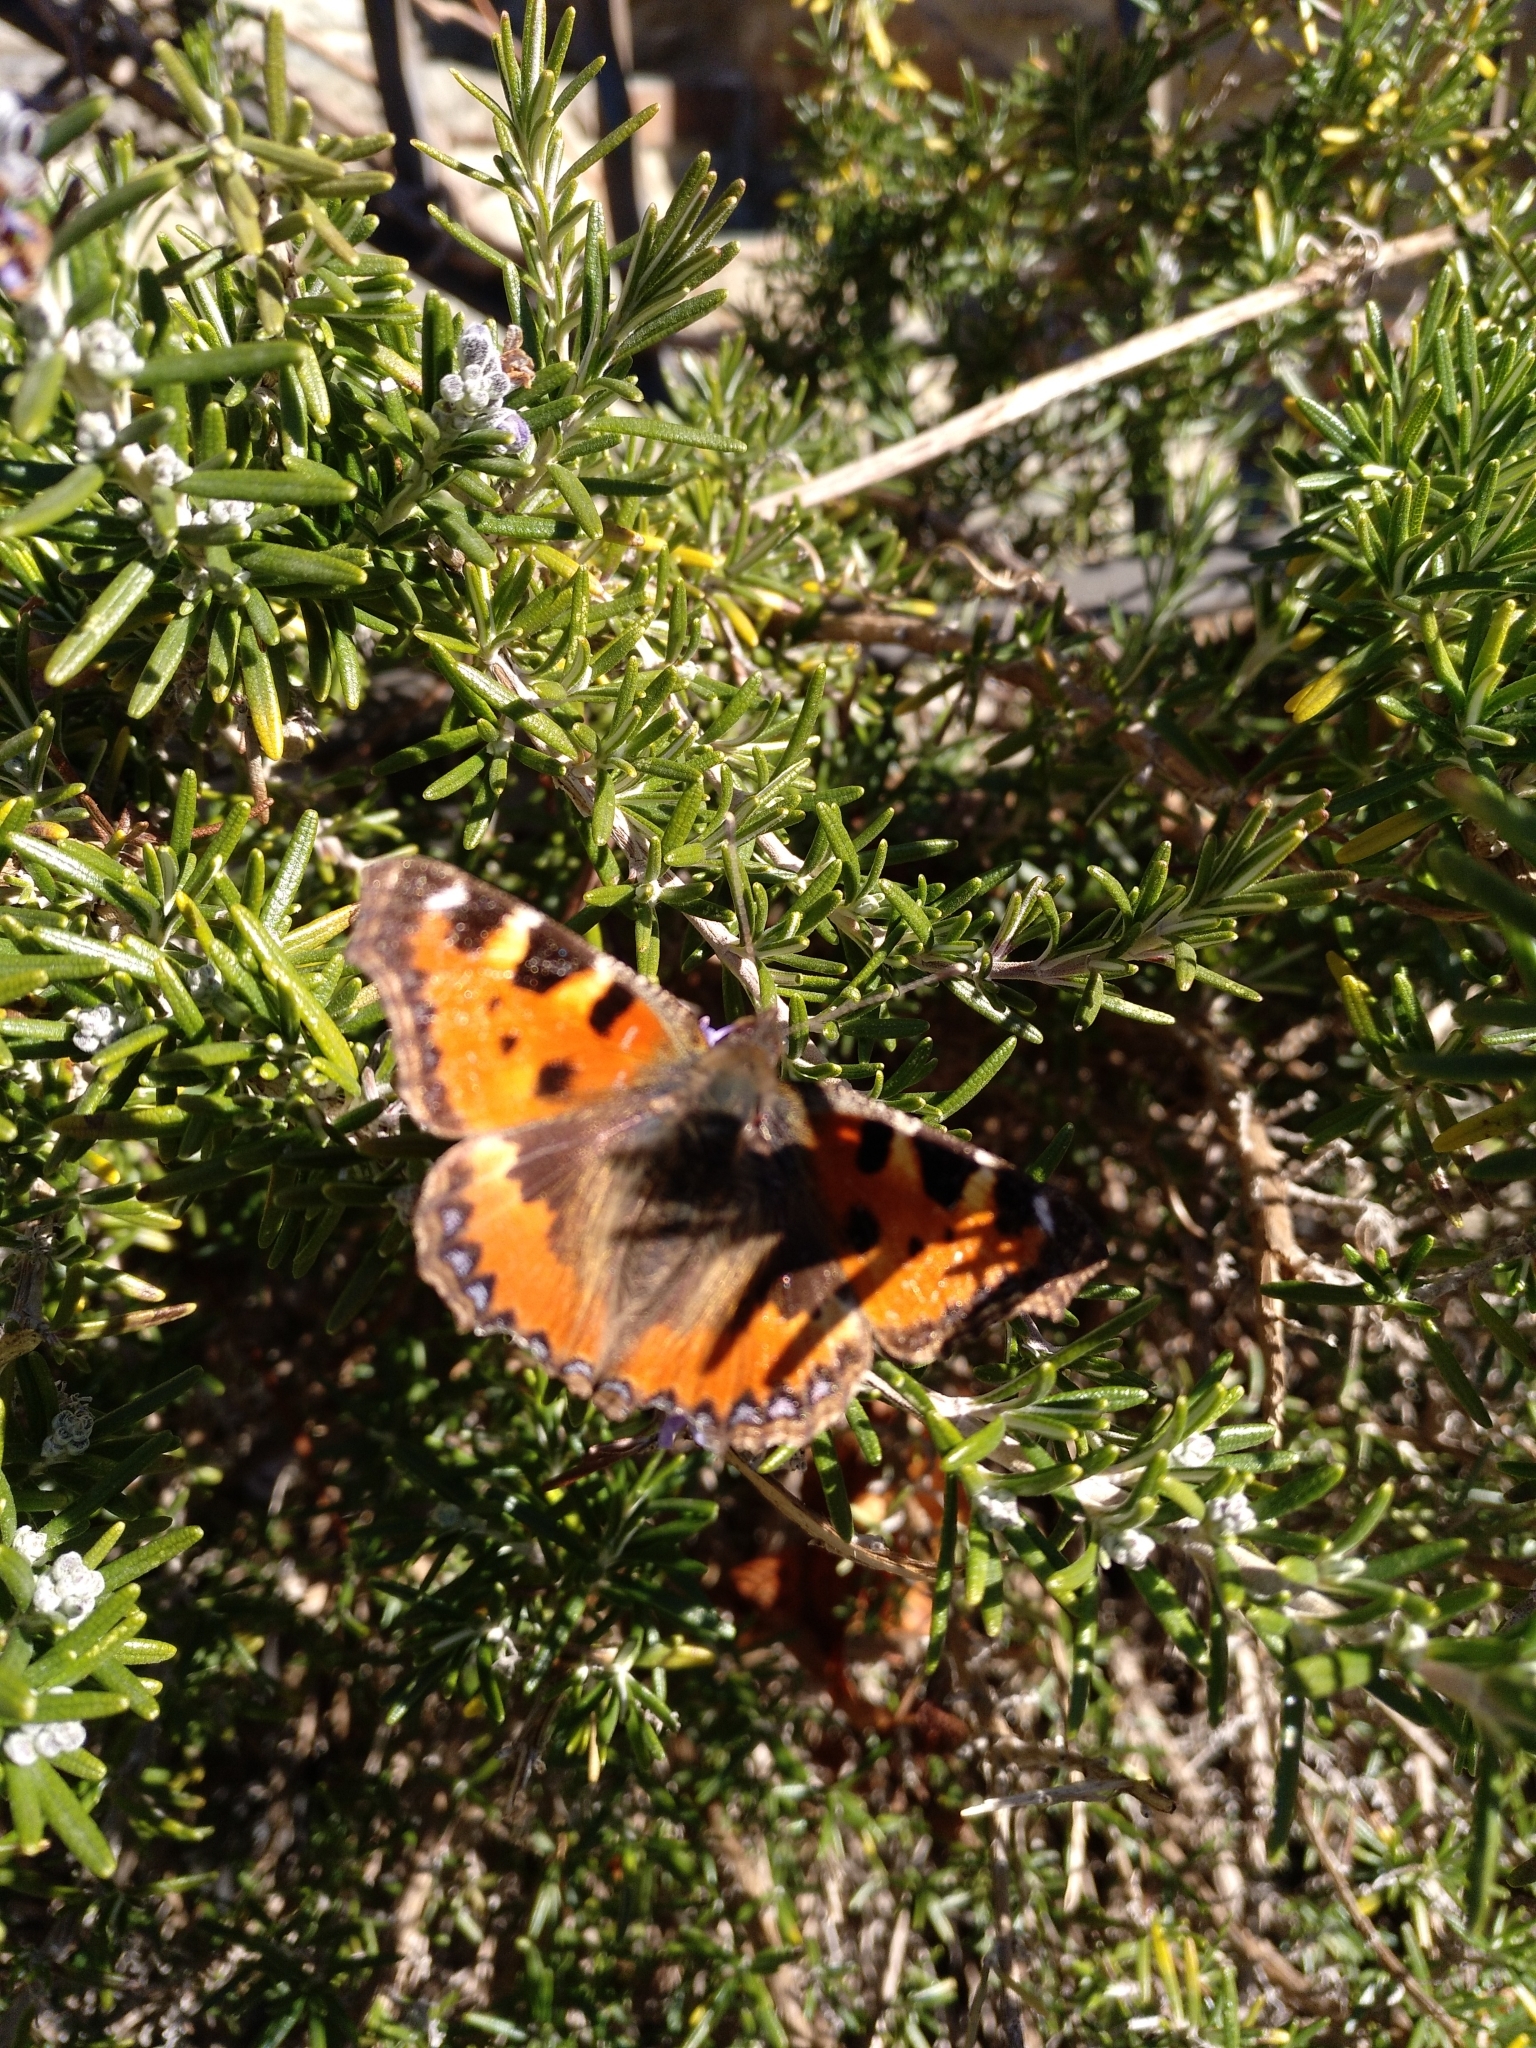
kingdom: Animalia
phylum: Arthropoda
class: Insecta
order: Lepidoptera
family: Nymphalidae
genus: Aglais
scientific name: Aglais urticae
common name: Small tortoiseshell
